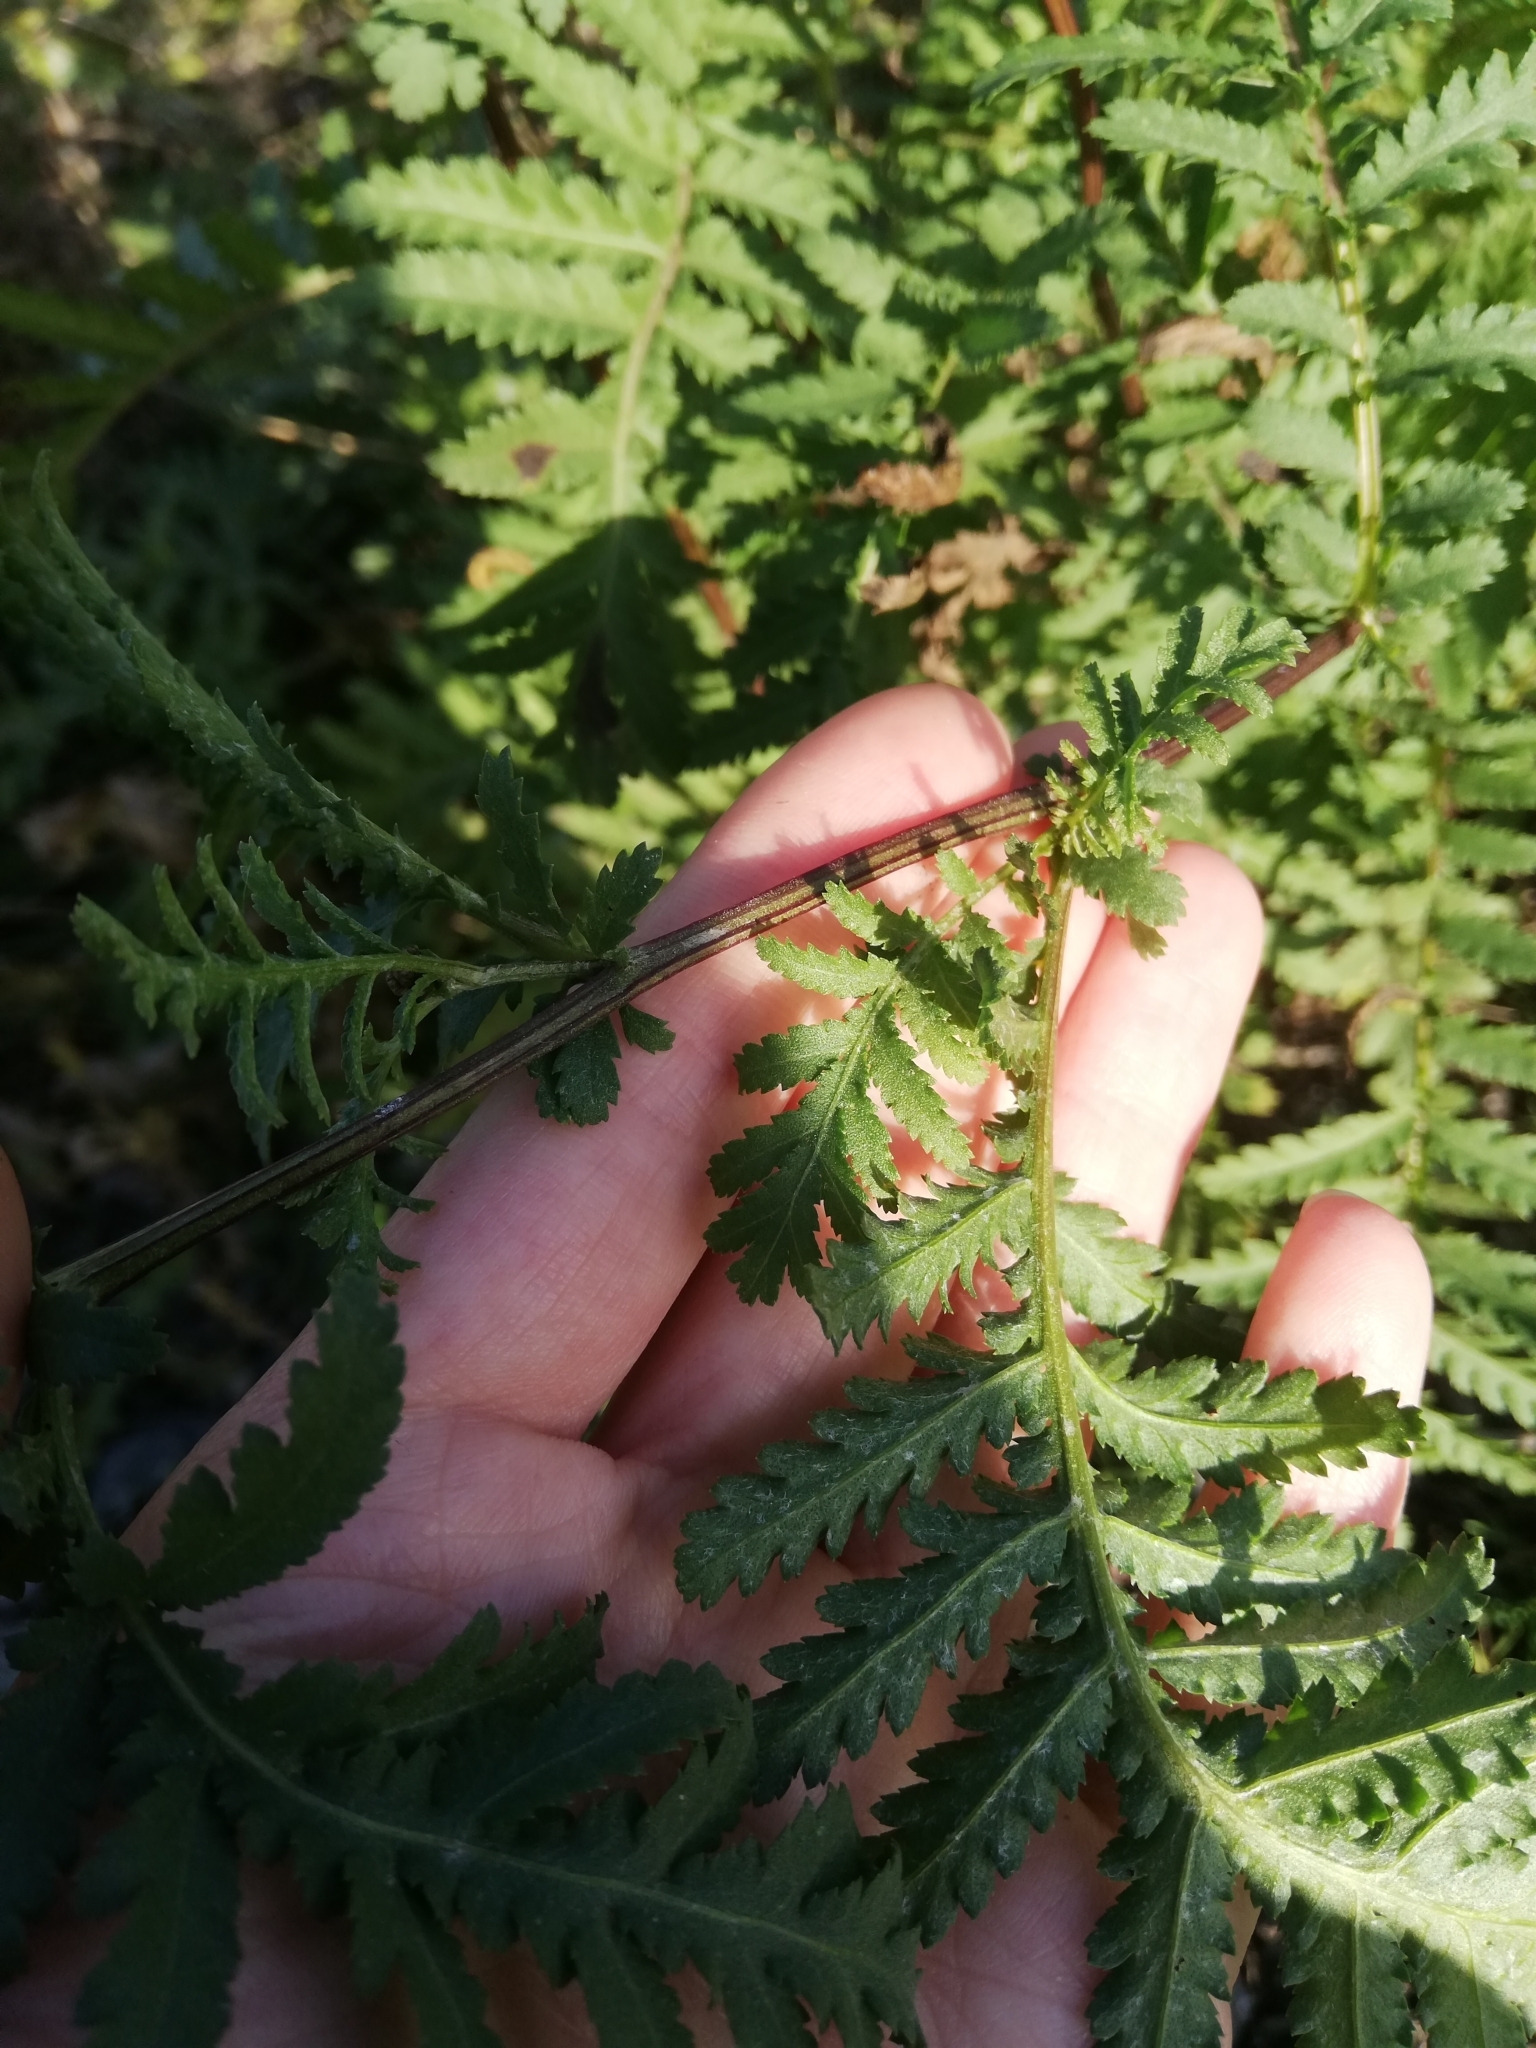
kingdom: Plantae
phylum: Tracheophyta
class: Magnoliopsida
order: Asterales
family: Asteraceae
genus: Tanacetum
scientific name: Tanacetum vulgare
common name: Common tansy
